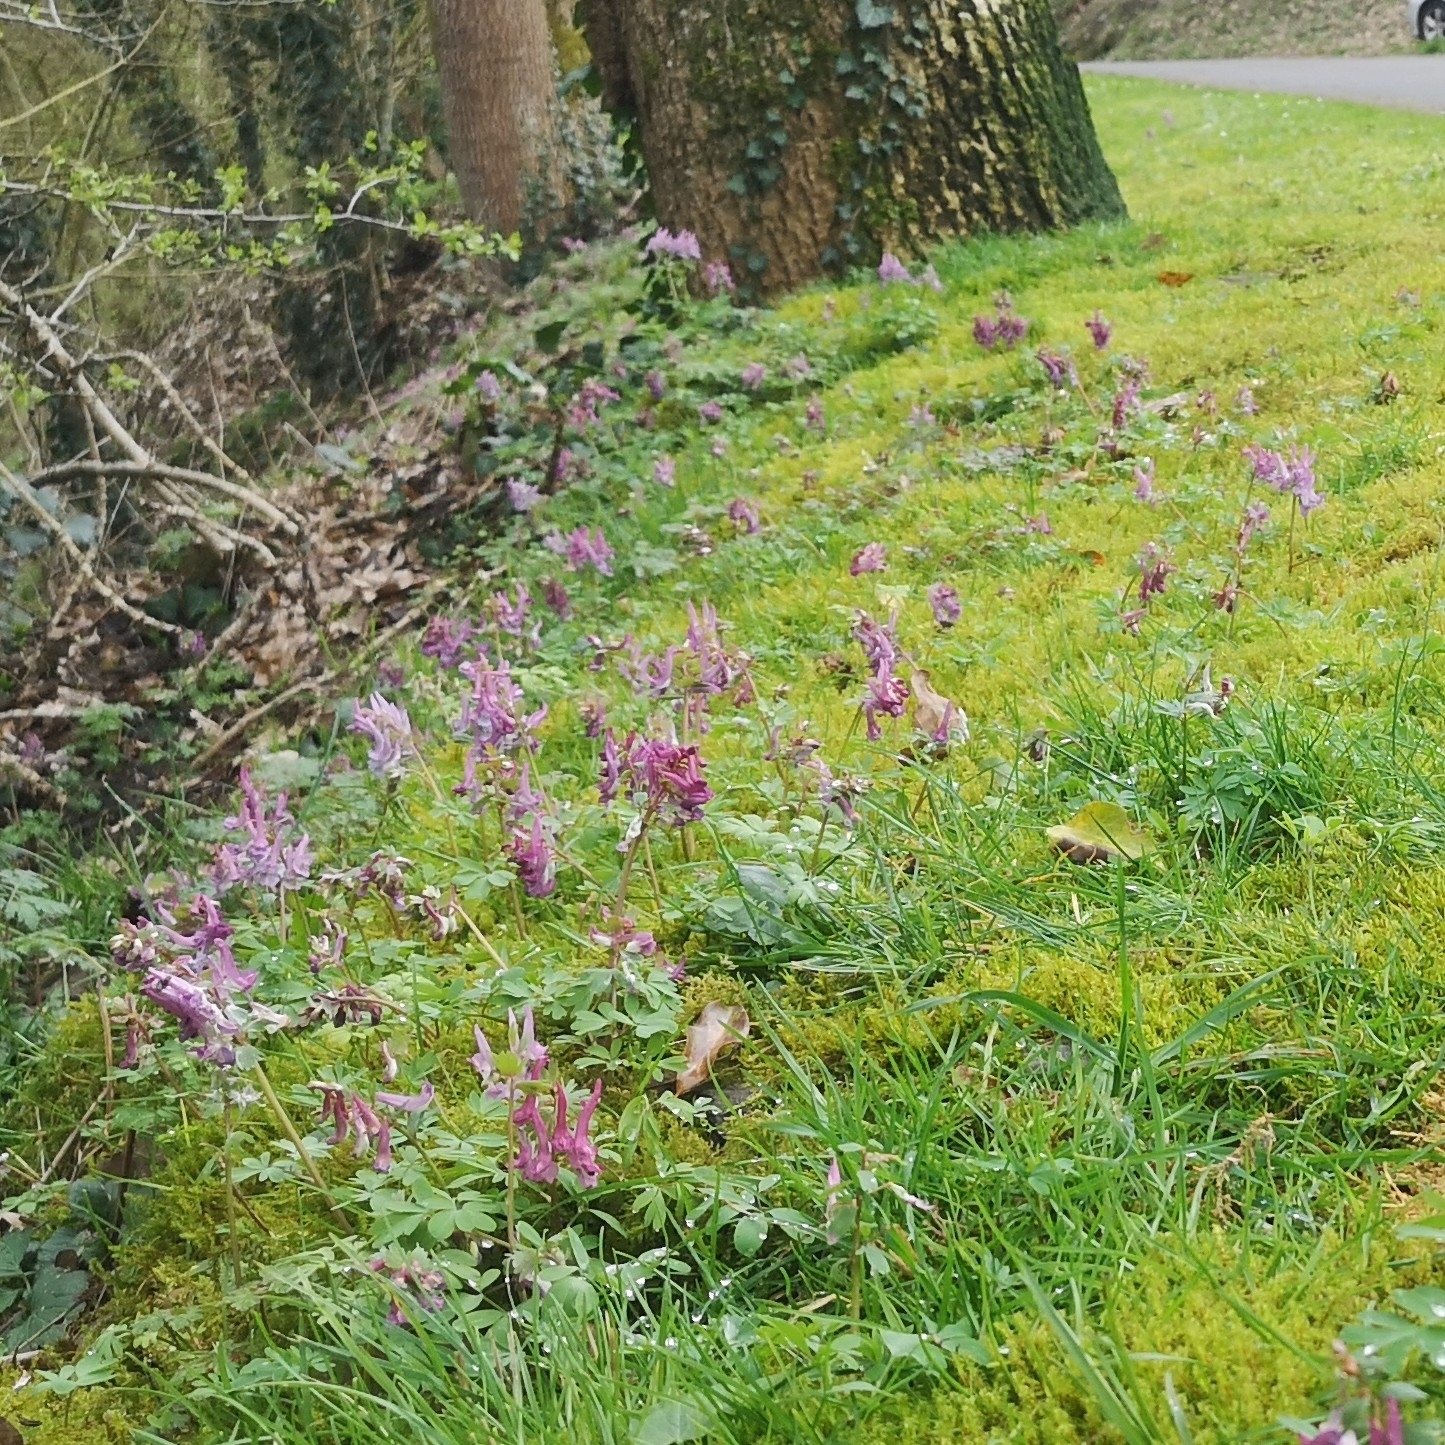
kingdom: Plantae
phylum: Tracheophyta
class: Magnoliopsida
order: Ranunculales
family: Papaveraceae
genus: Corydalis
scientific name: Corydalis solida
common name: Bird-in-a-bush
